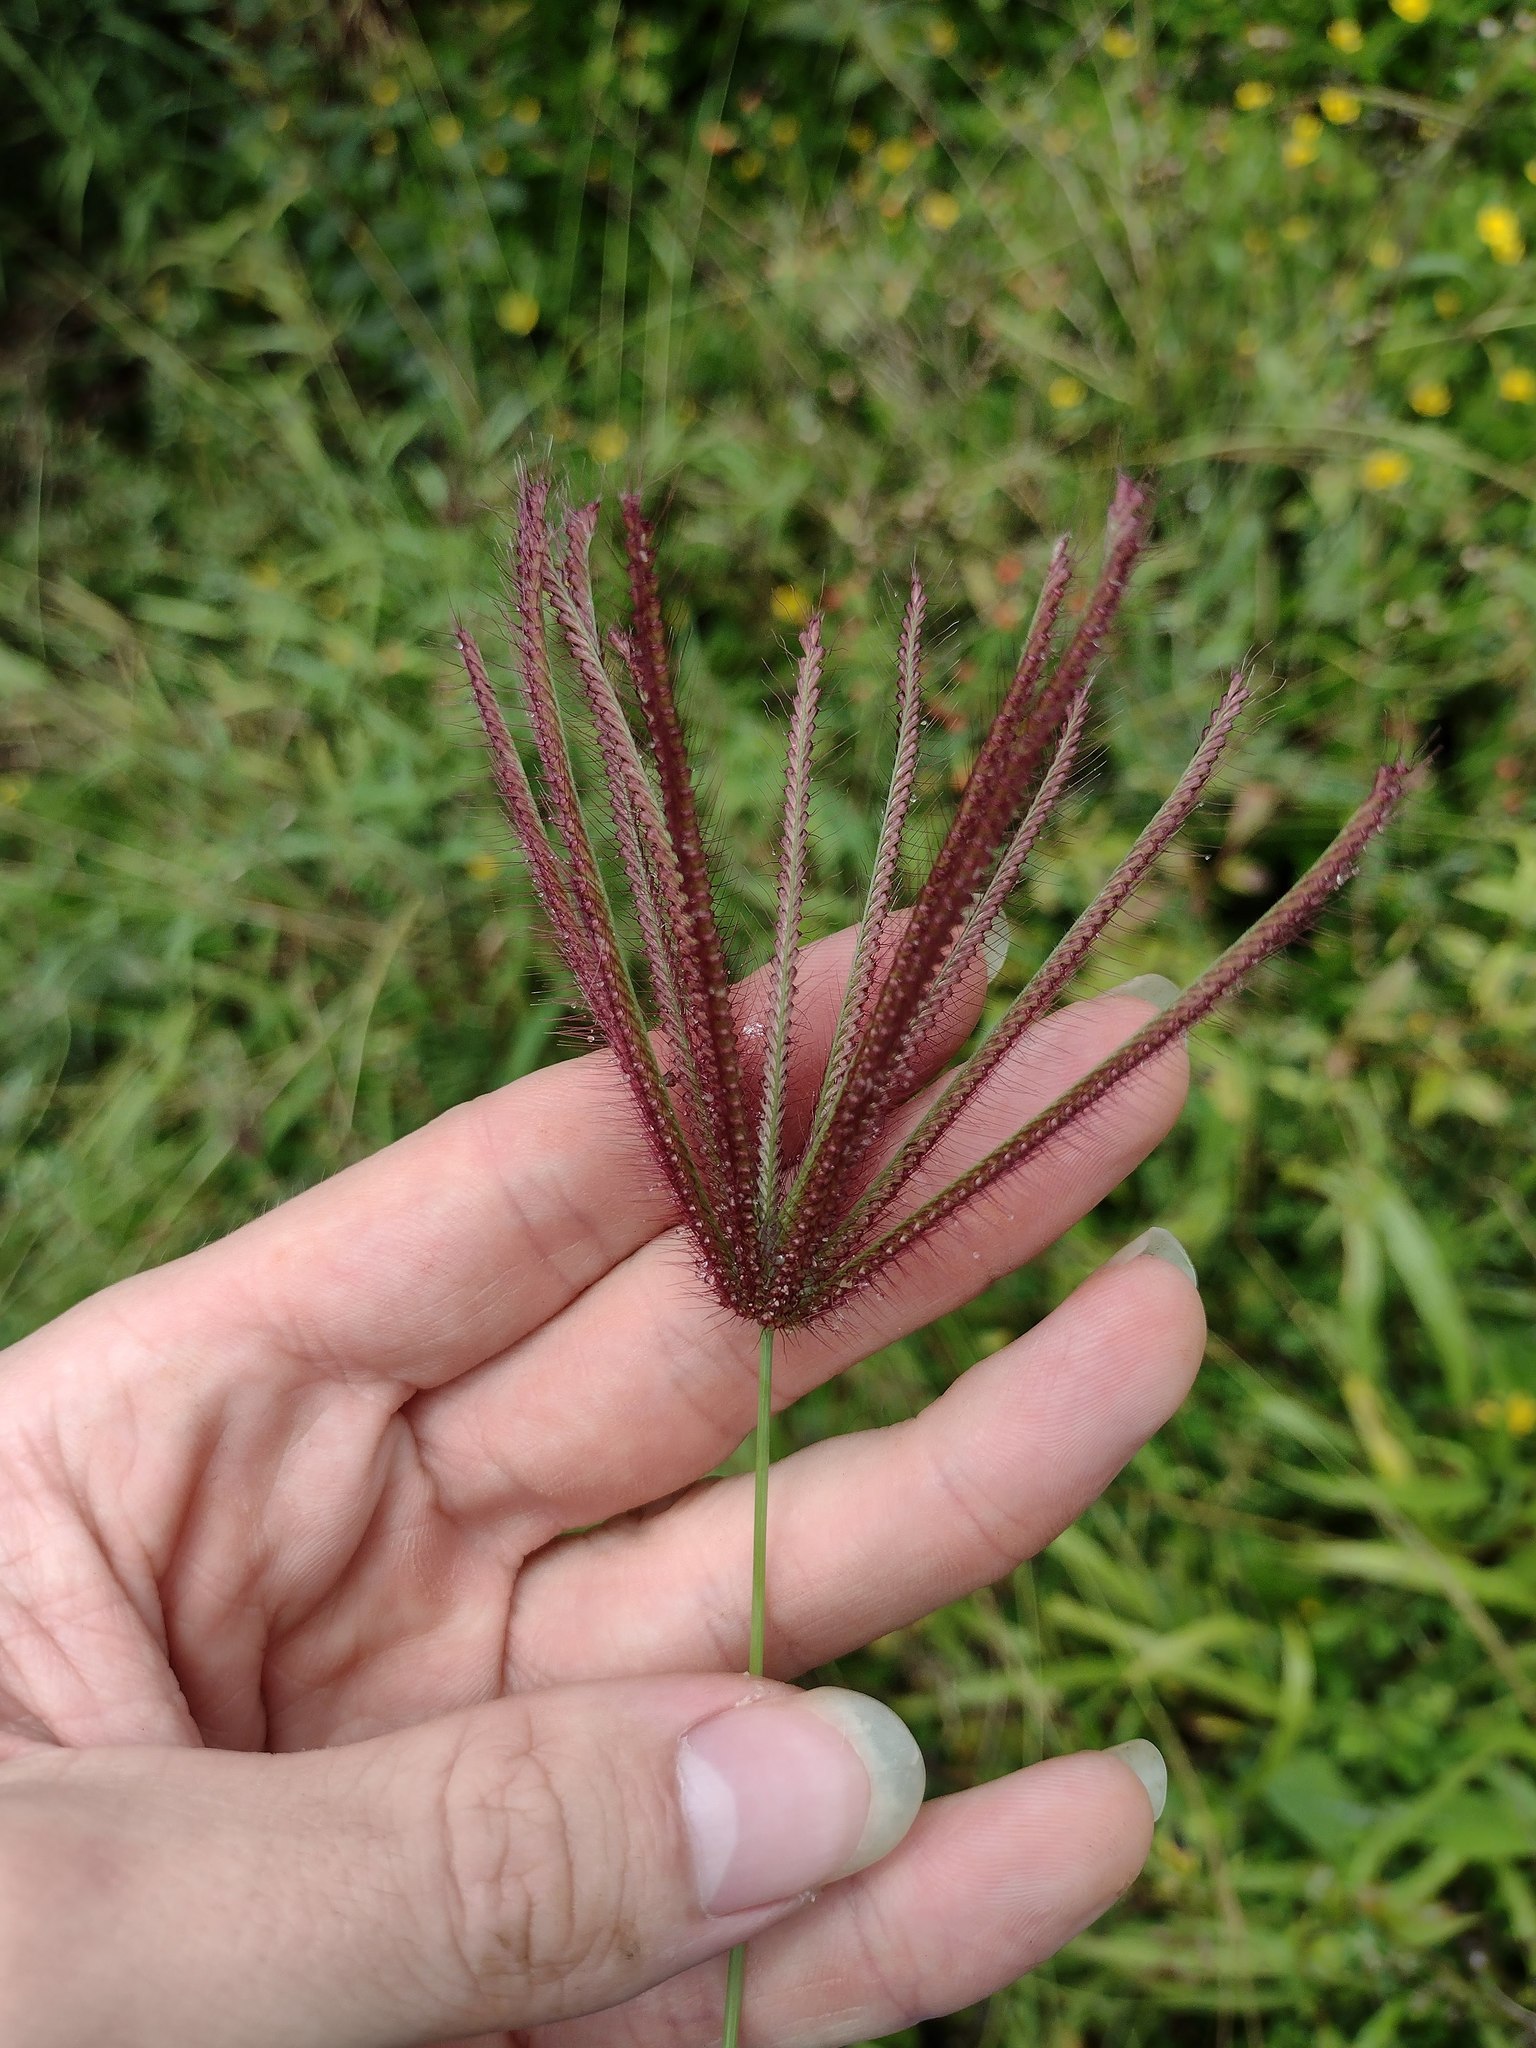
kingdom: Plantae
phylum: Tracheophyta
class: Liliopsida
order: Poales
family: Poaceae
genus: Chloris
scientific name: Chloris barbata
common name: Swollen fingergrass
